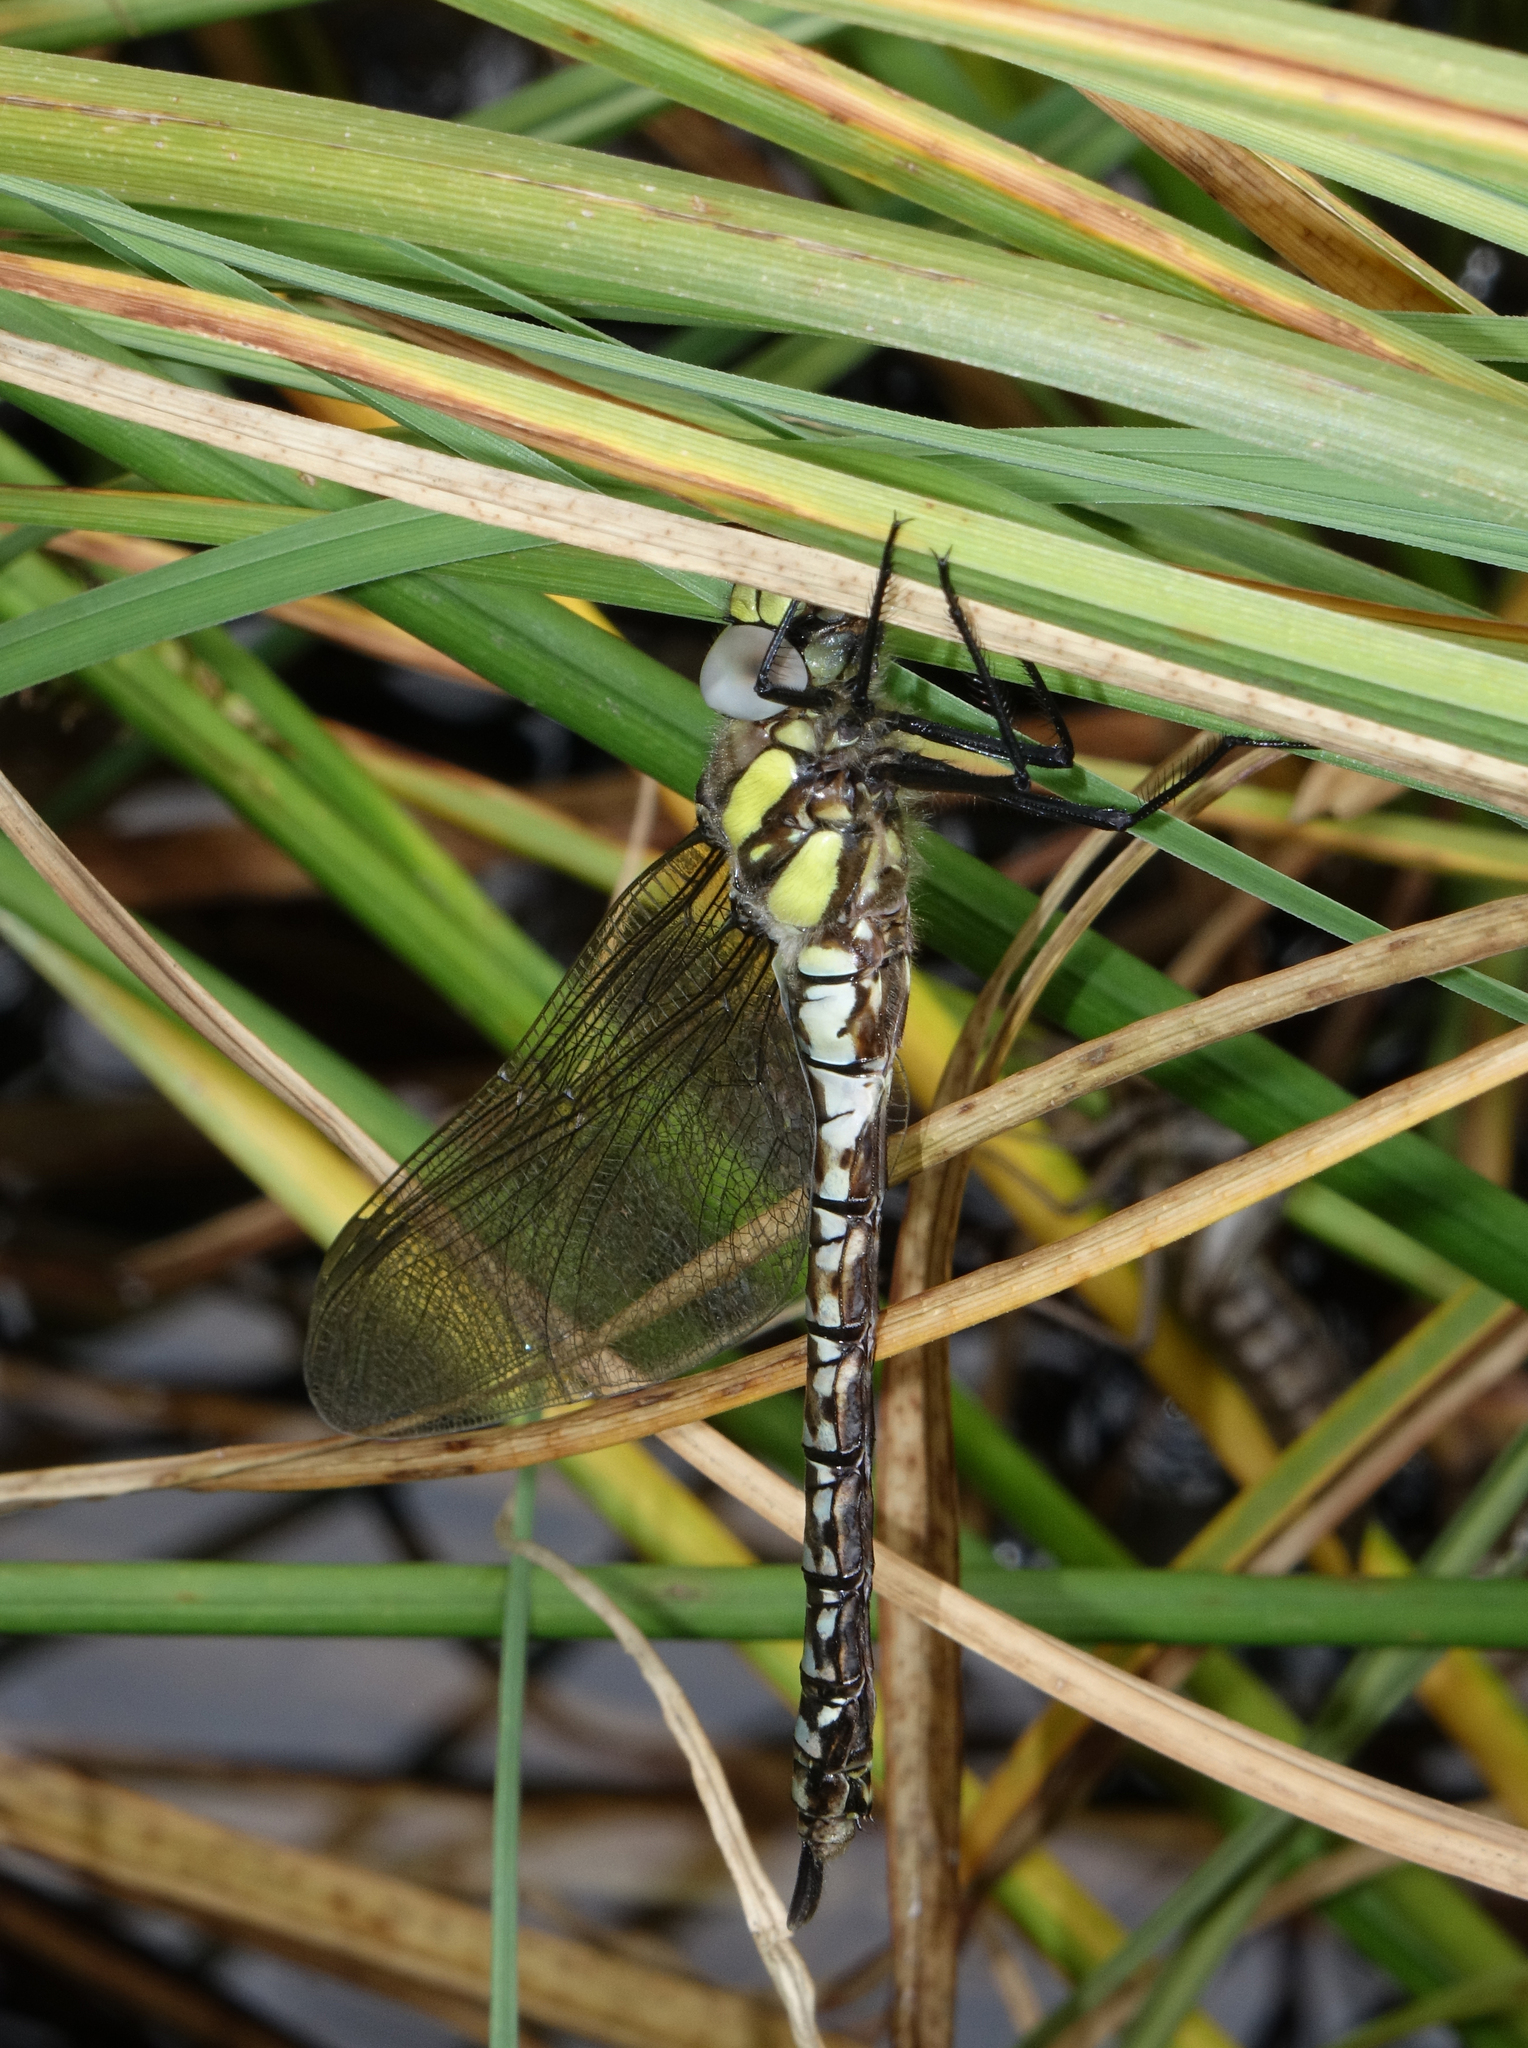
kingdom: Animalia
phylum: Arthropoda
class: Insecta
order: Odonata
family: Aeshnidae
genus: Aeshna
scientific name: Aeshna juncea
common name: Moorland hawker
